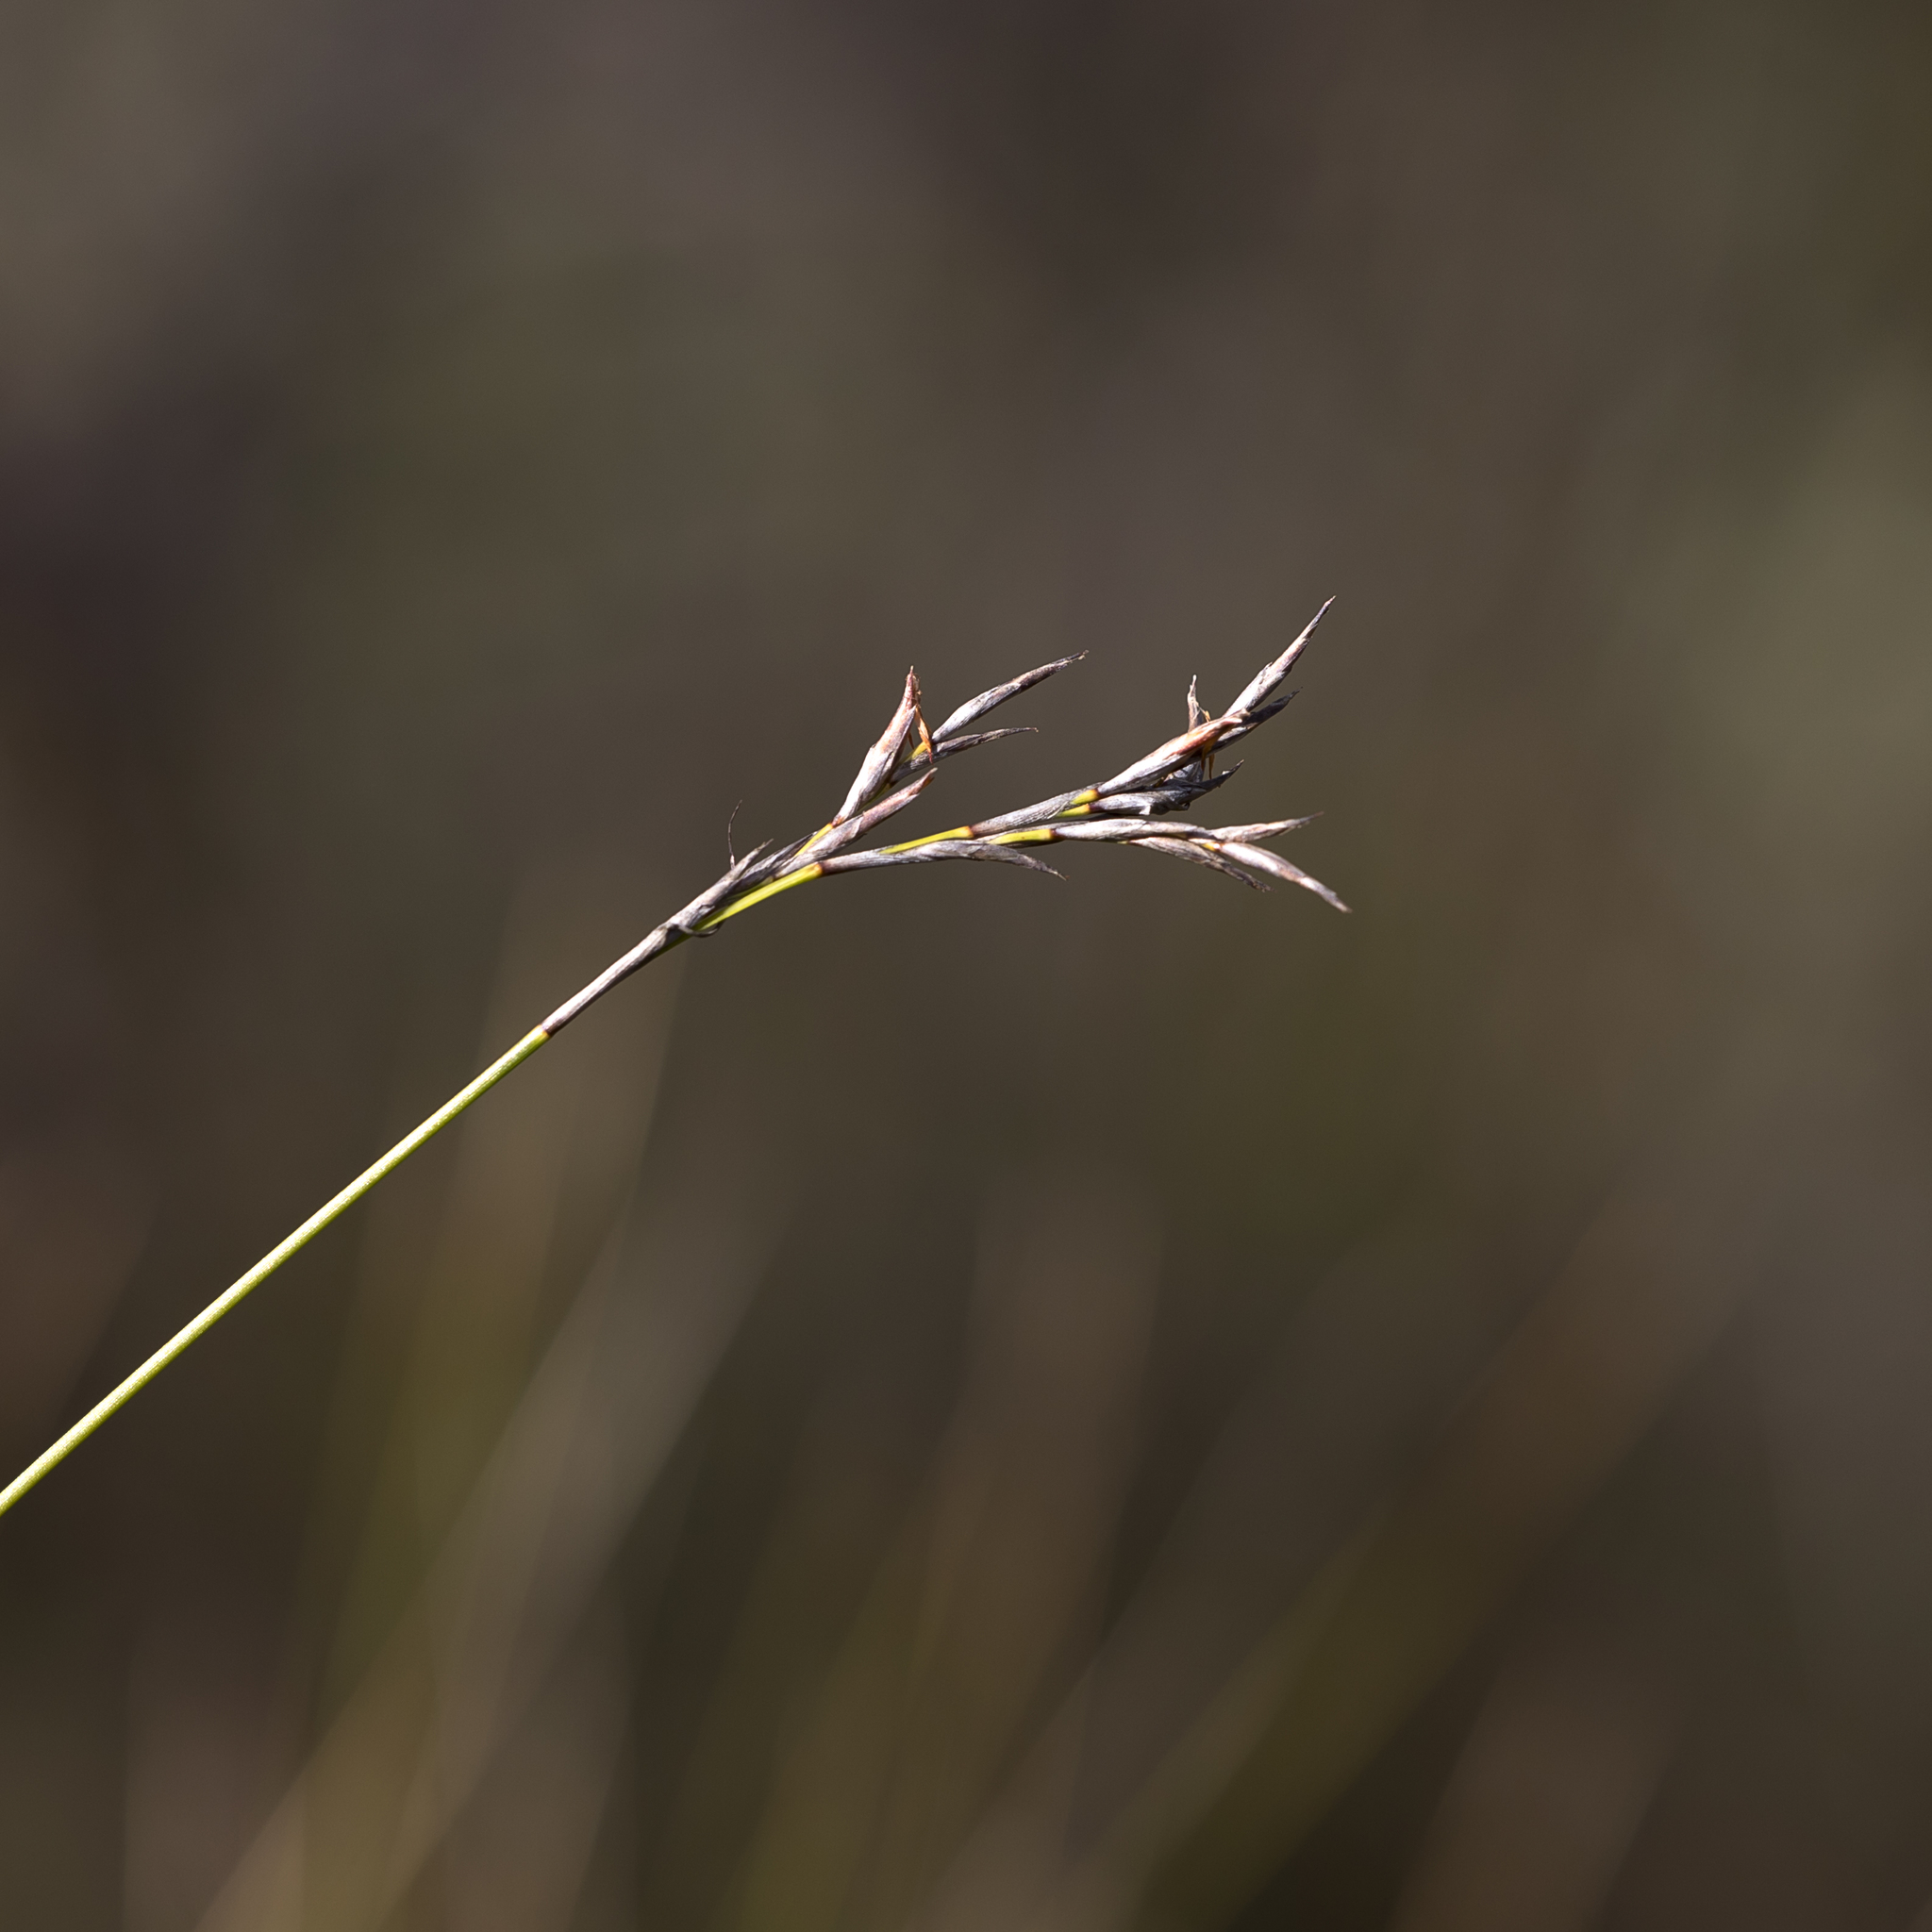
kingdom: Plantae
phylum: Tracheophyta
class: Liliopsida
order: Poales
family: Cyperaceae
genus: Lepidosperma
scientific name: Lepidosperma semiteres
